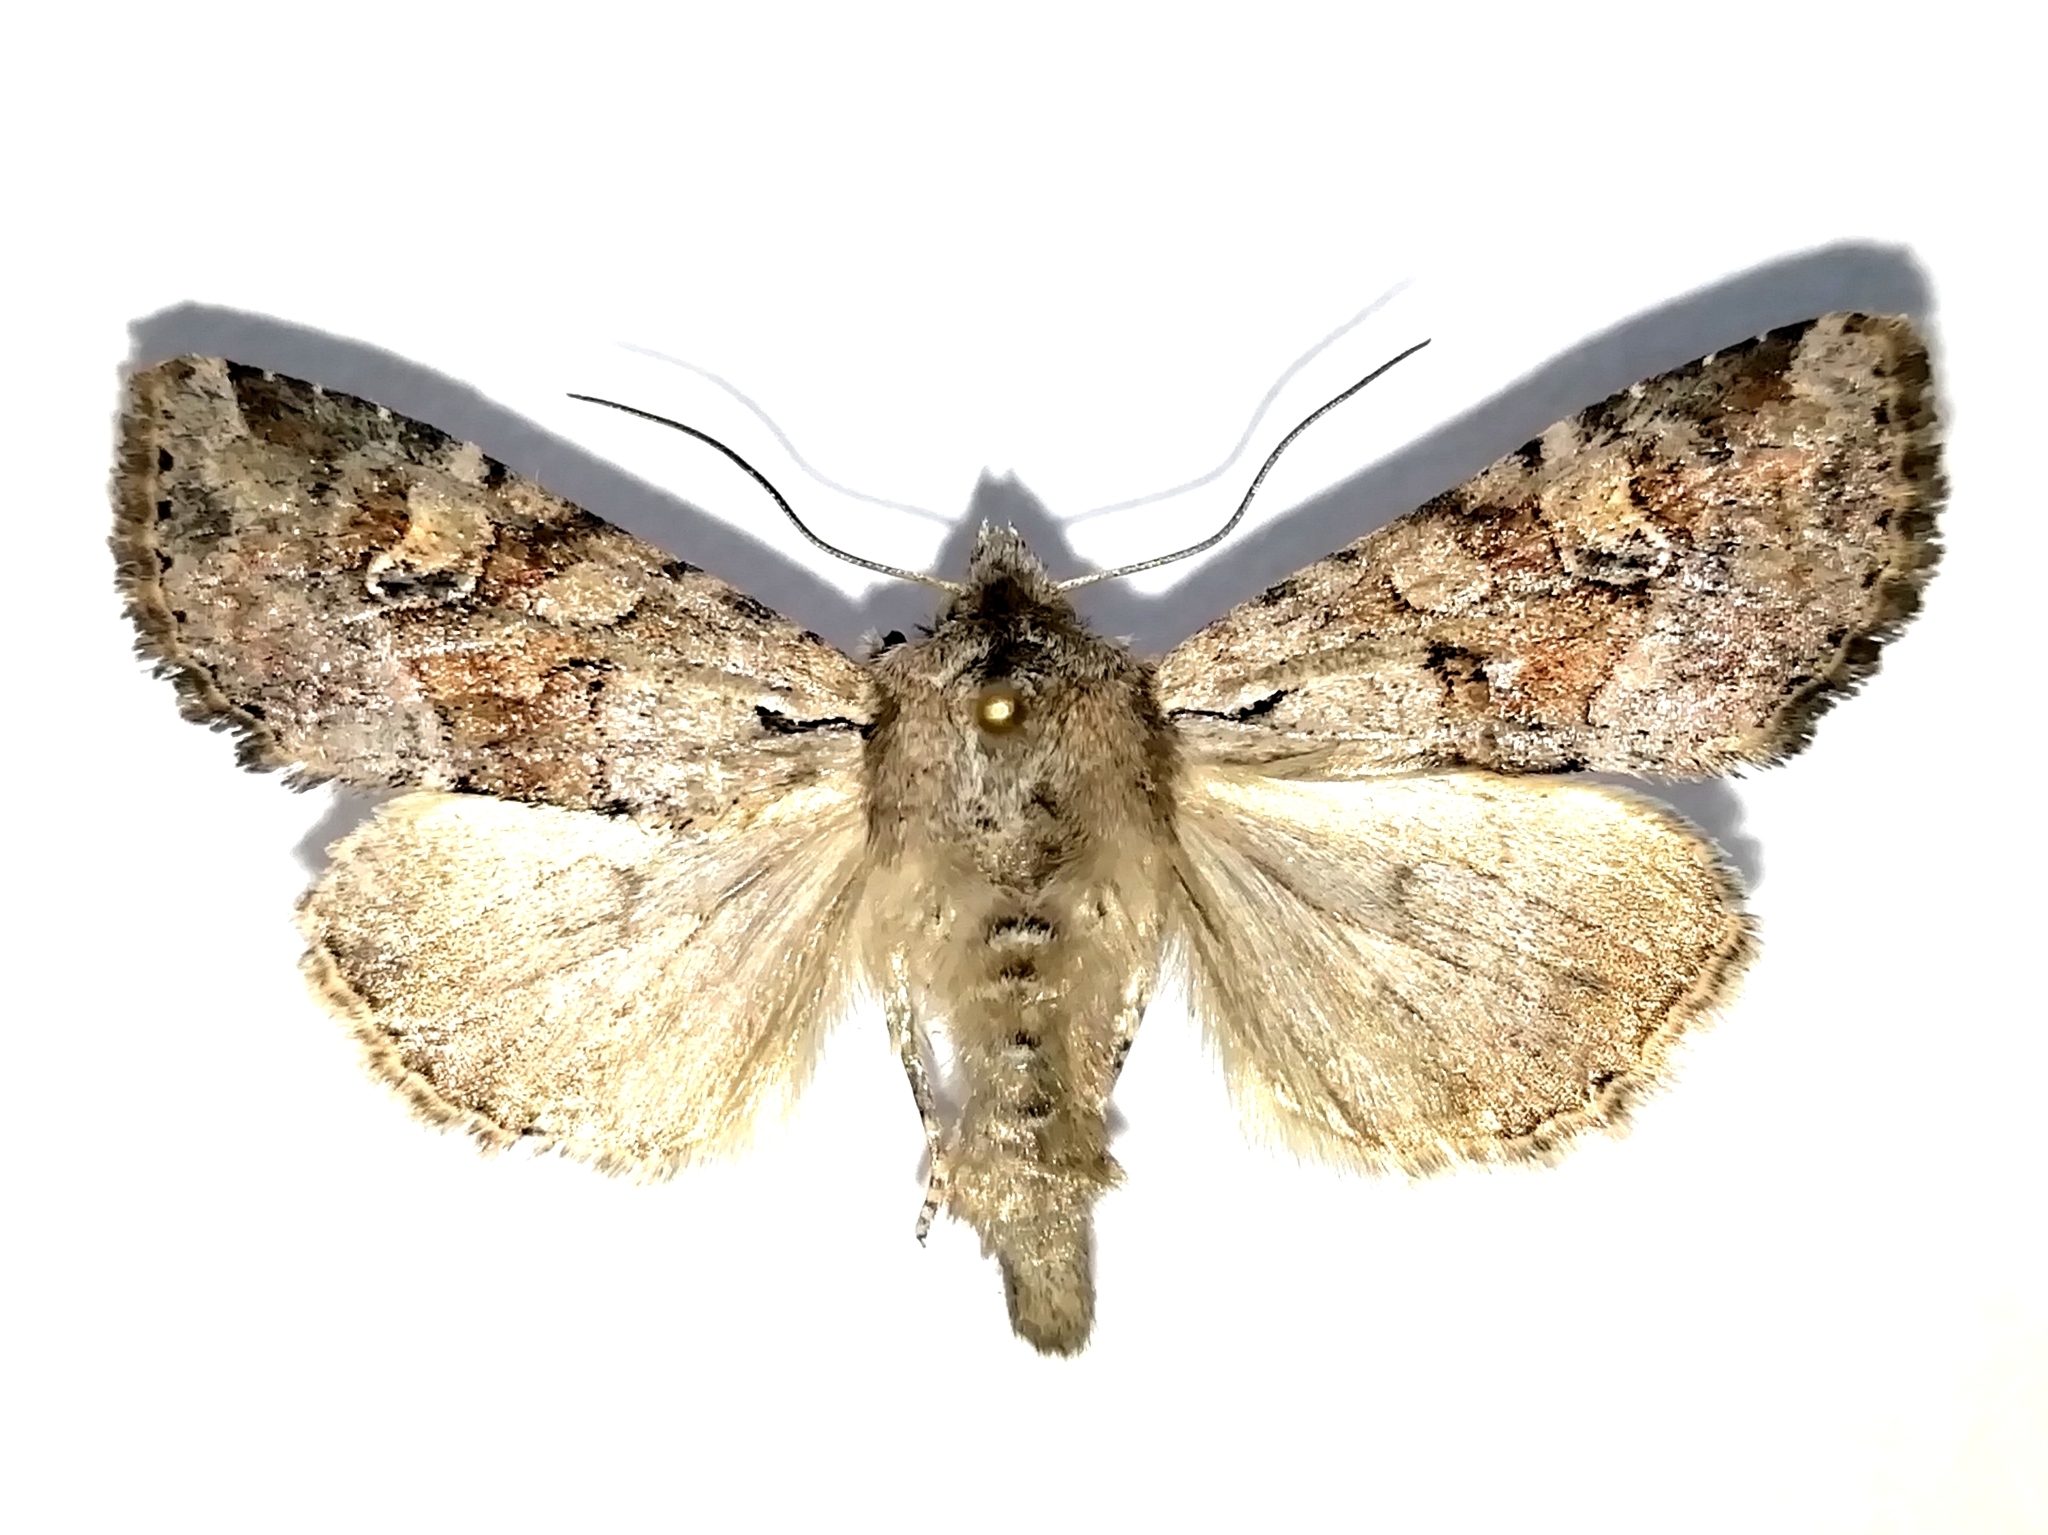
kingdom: Animalia
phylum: Arthropoda
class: Insecta
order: Lepidoptera
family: Noctuidae
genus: Apamea
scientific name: Apamea sordens
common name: Rustic shoulder-knot
